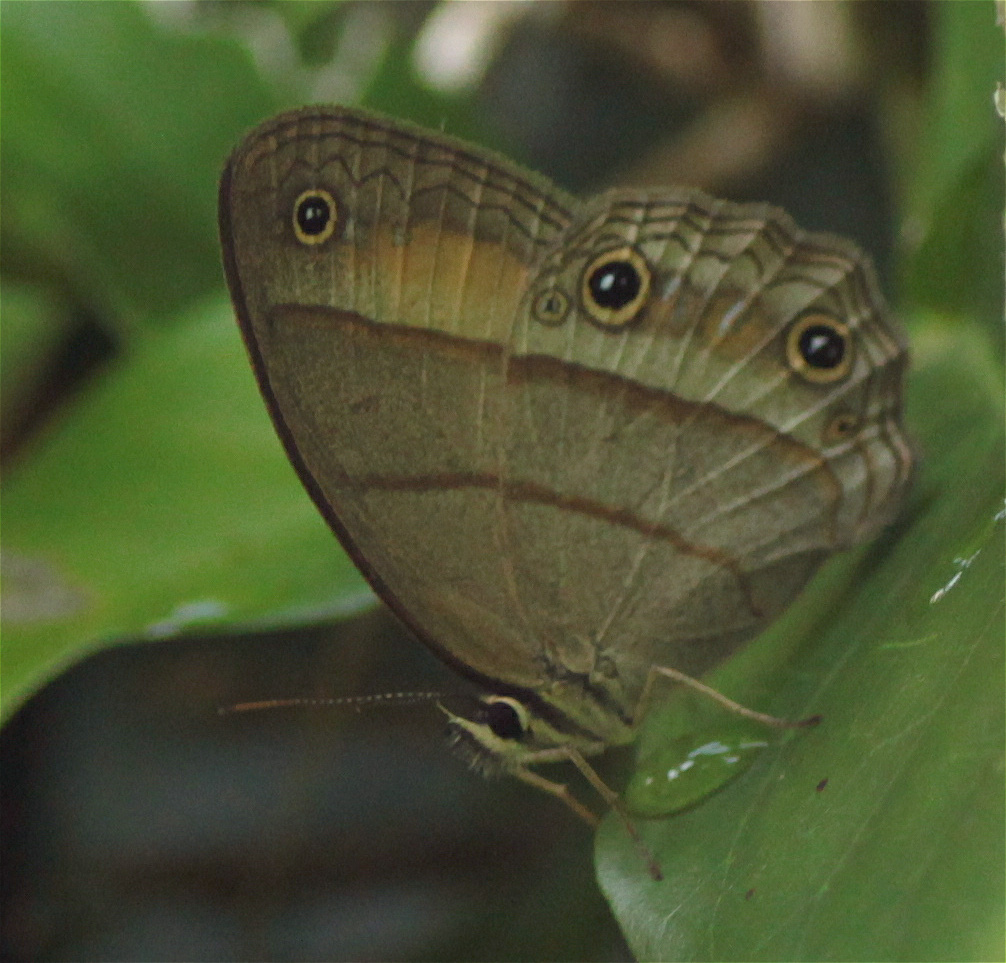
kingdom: Animalia
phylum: Arthropoda
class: Insecta
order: Lepidoptera
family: Nymphalidae
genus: Euptychia
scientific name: Euptychia Cissia pompilia
